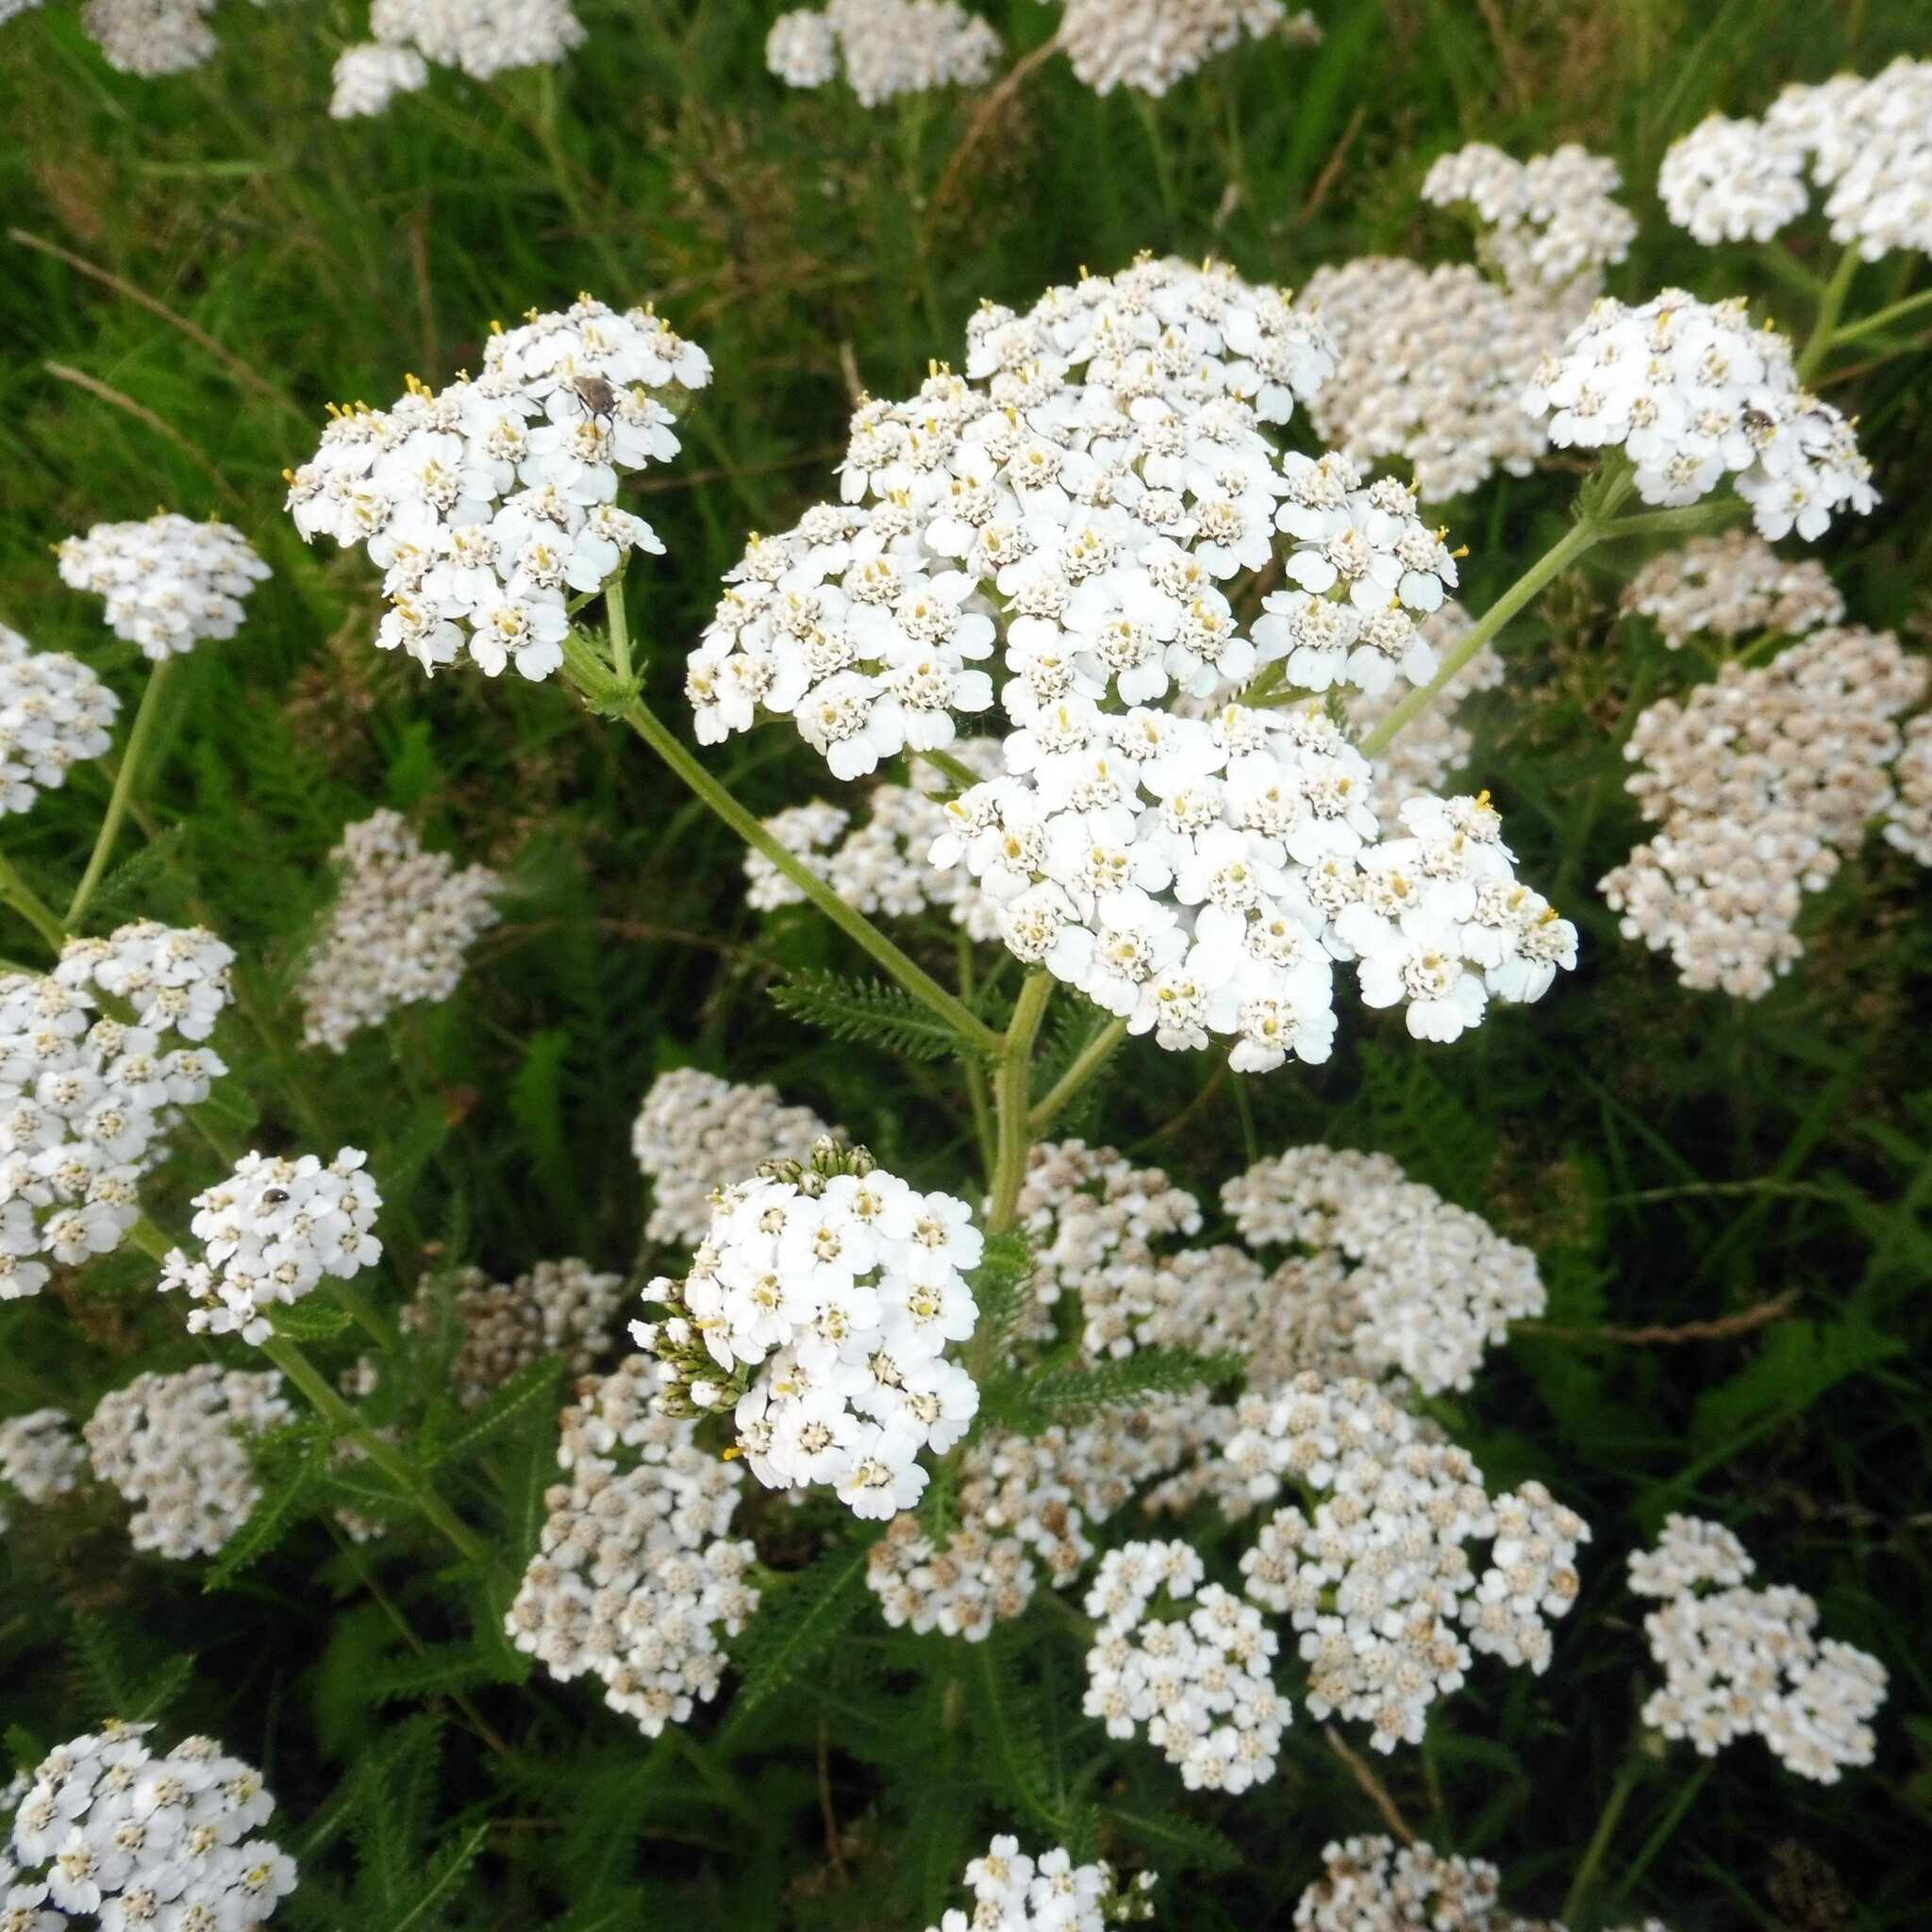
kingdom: Plantae
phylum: Tracheophyta
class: Magnoliopsida
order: Asterales
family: Asteraceae
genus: Achillea
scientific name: Achillea millefolium
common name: Yarrow
